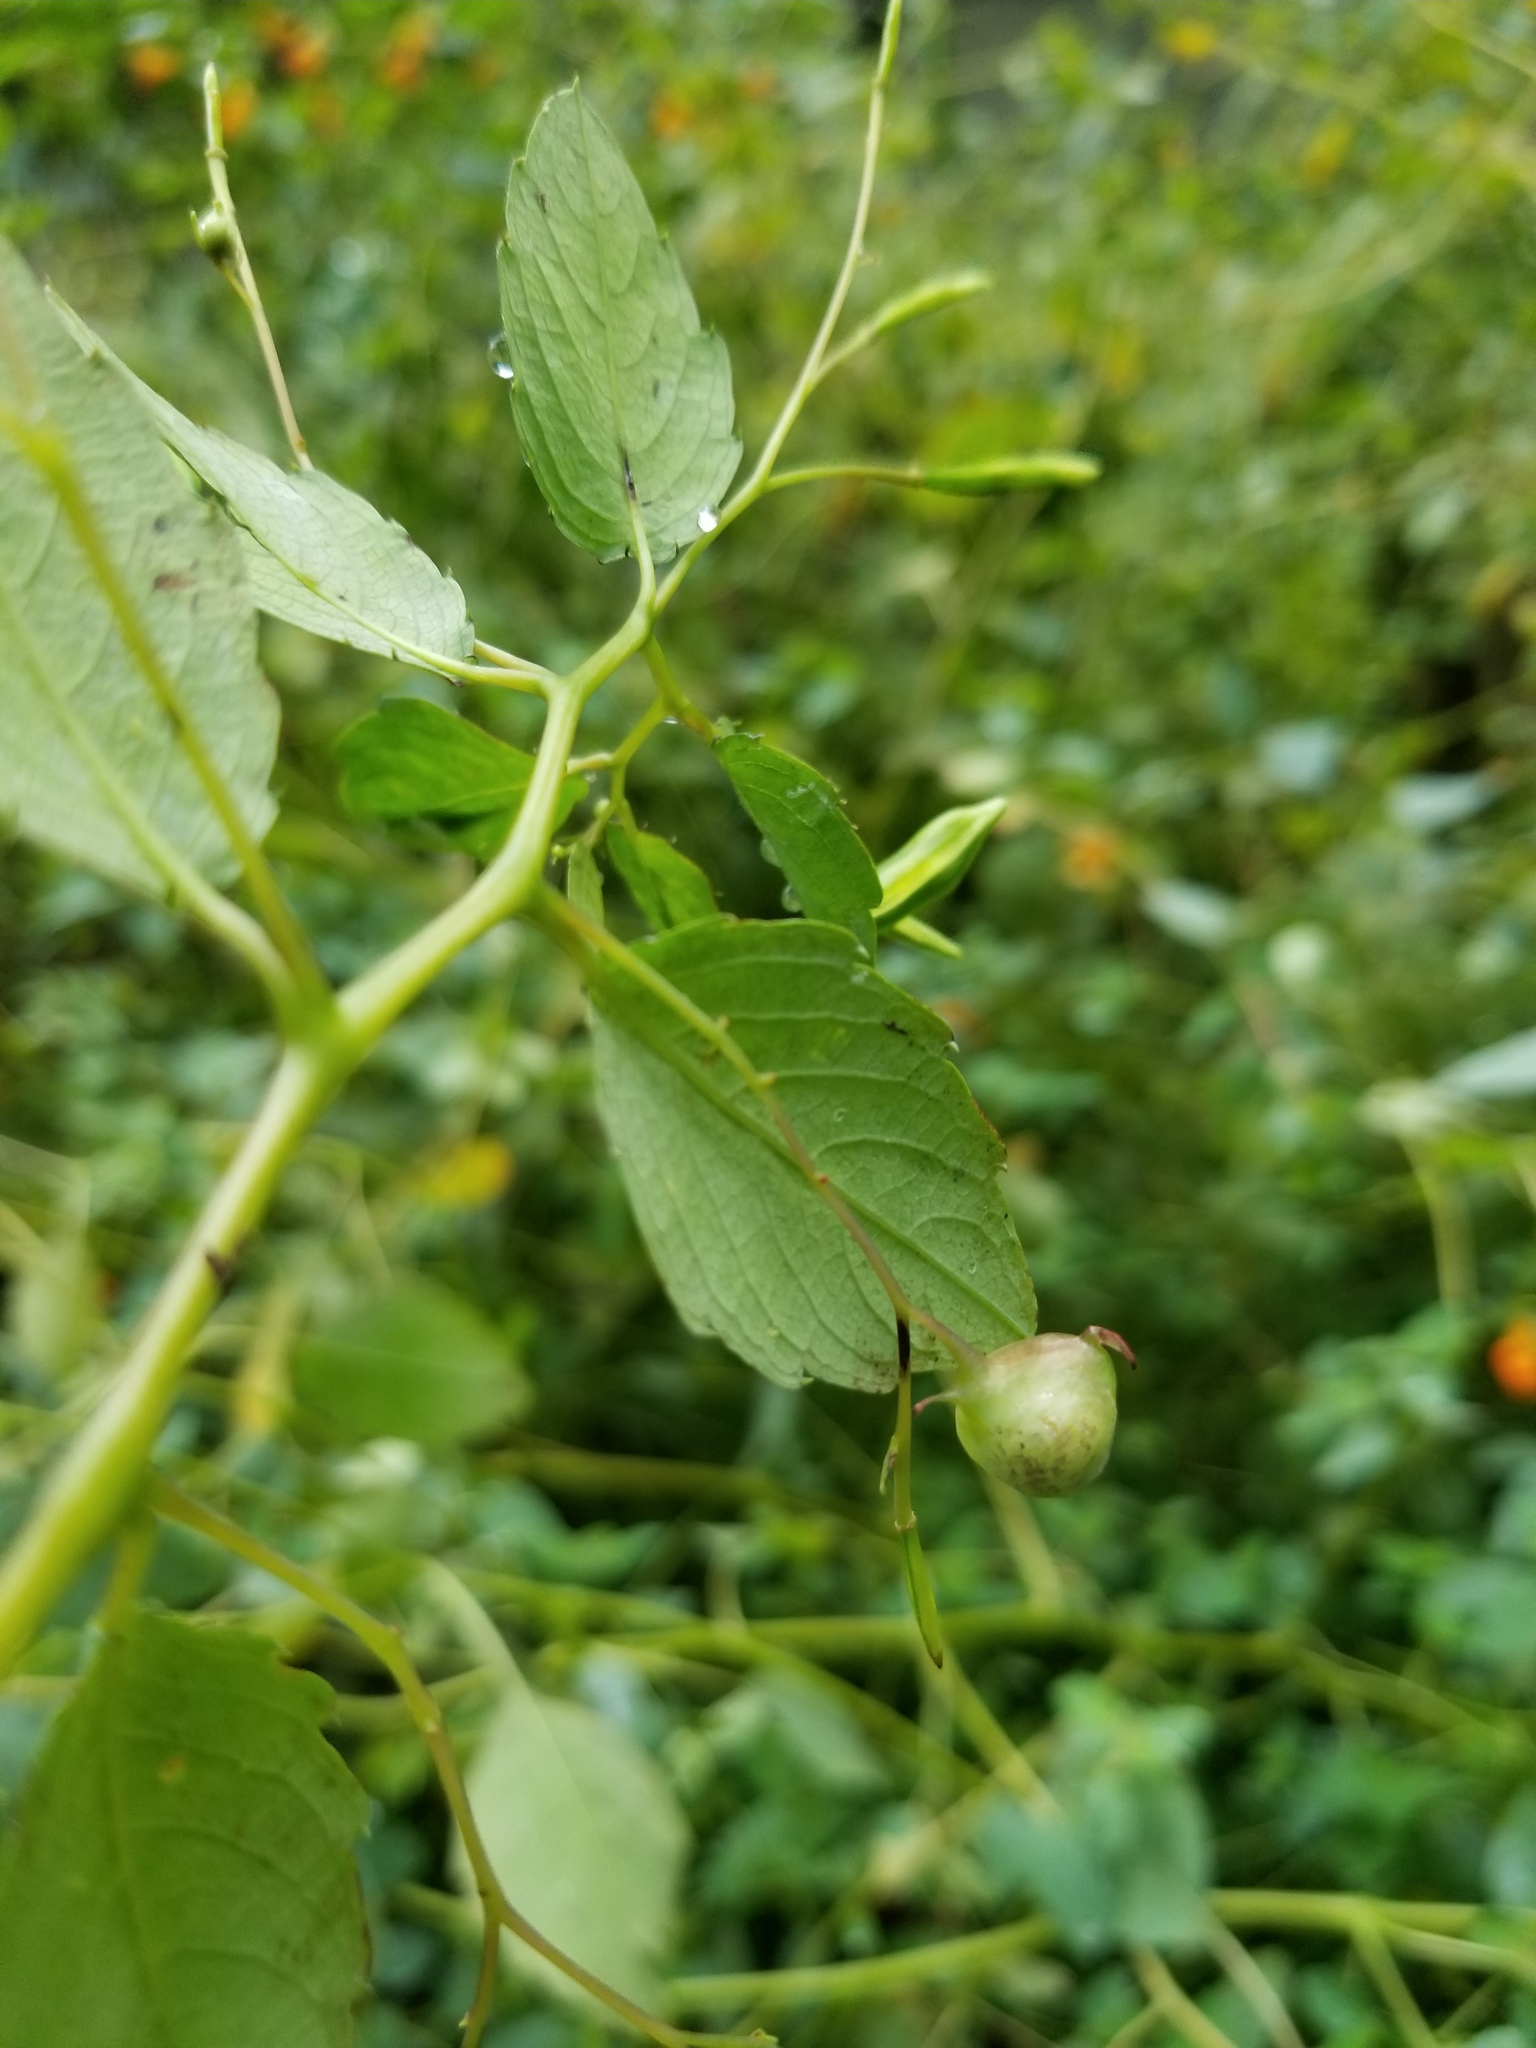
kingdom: Animalia
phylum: Arthropoda
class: Insecta
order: Diptera
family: Cecidomyiidae
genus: Schizomyia
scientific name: Schizomyia impatientis
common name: Jewelweed gall midge
